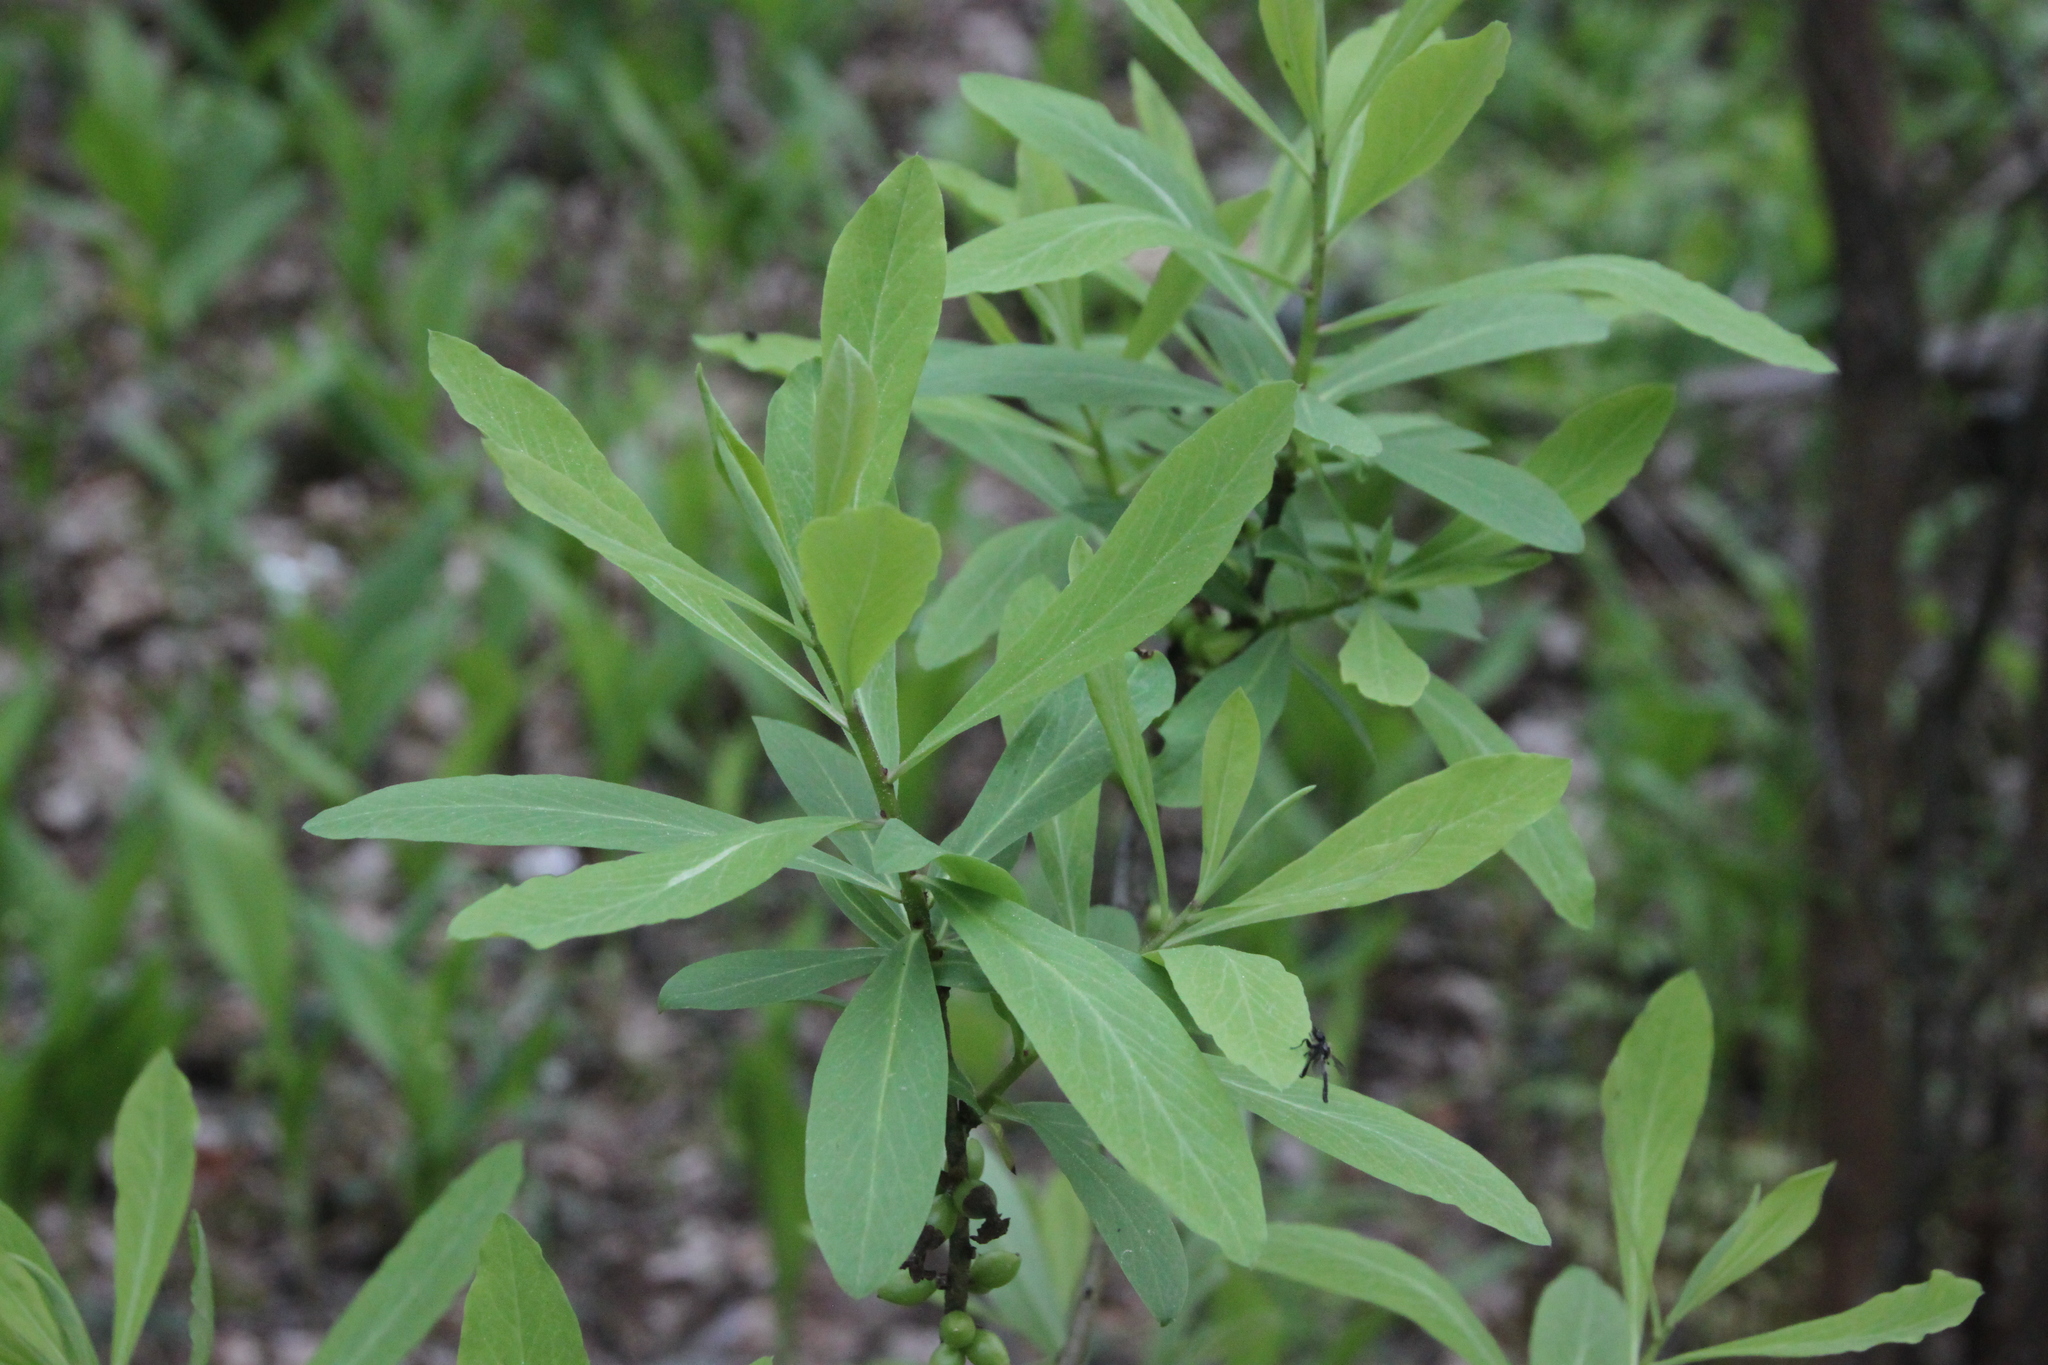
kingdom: Plantae
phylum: Tracheophyta
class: Magnoliopsida
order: Malvales
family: Thymelaeaceae
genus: Daphne
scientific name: Daphne mezereum
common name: Mezereon
